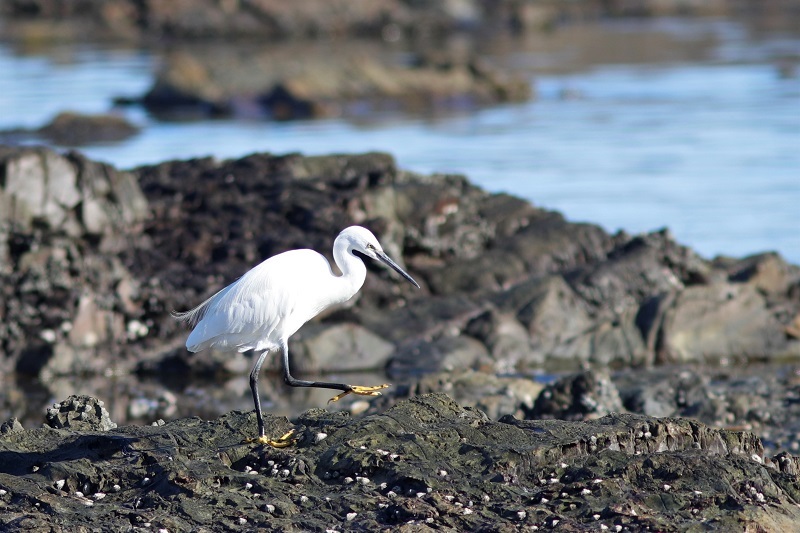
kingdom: Animalia
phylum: Chordata
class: Aves
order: Pelecaniformes
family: Ardeidae
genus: Egretta
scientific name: Egretta garzetta
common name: Little egret
